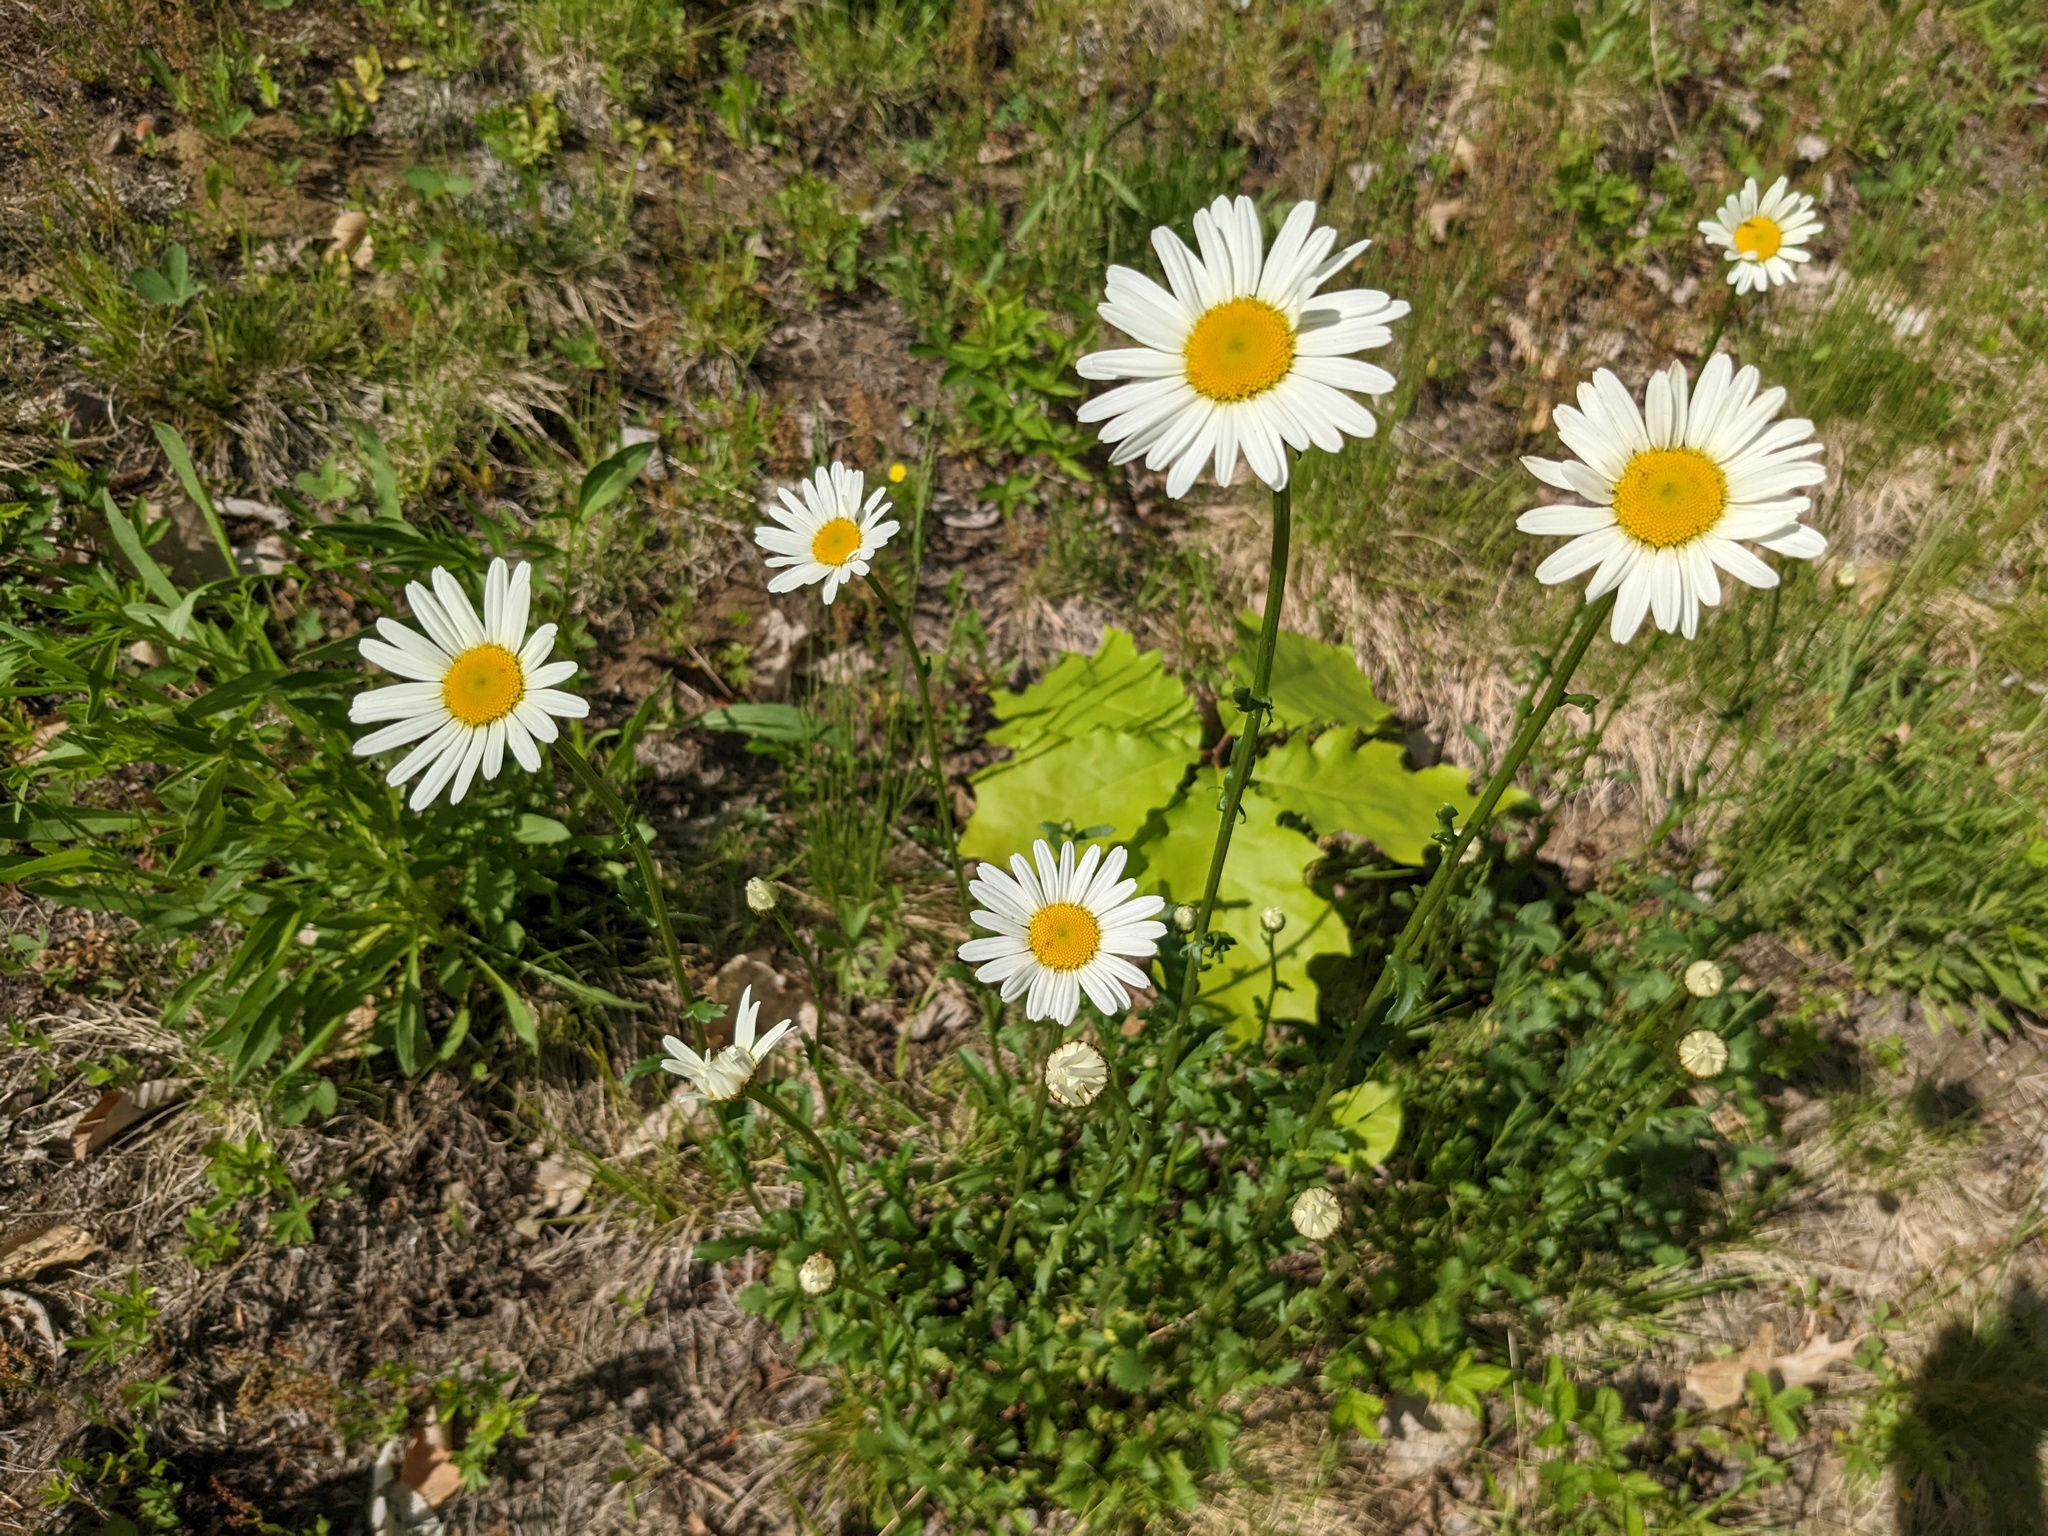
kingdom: Plantae
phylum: Tracheophyta
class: Magnoliopsida
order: Asterales
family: Asteraceae
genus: Leucanthemum
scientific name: Leucanthemum vulgare
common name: Oxeye daisy
